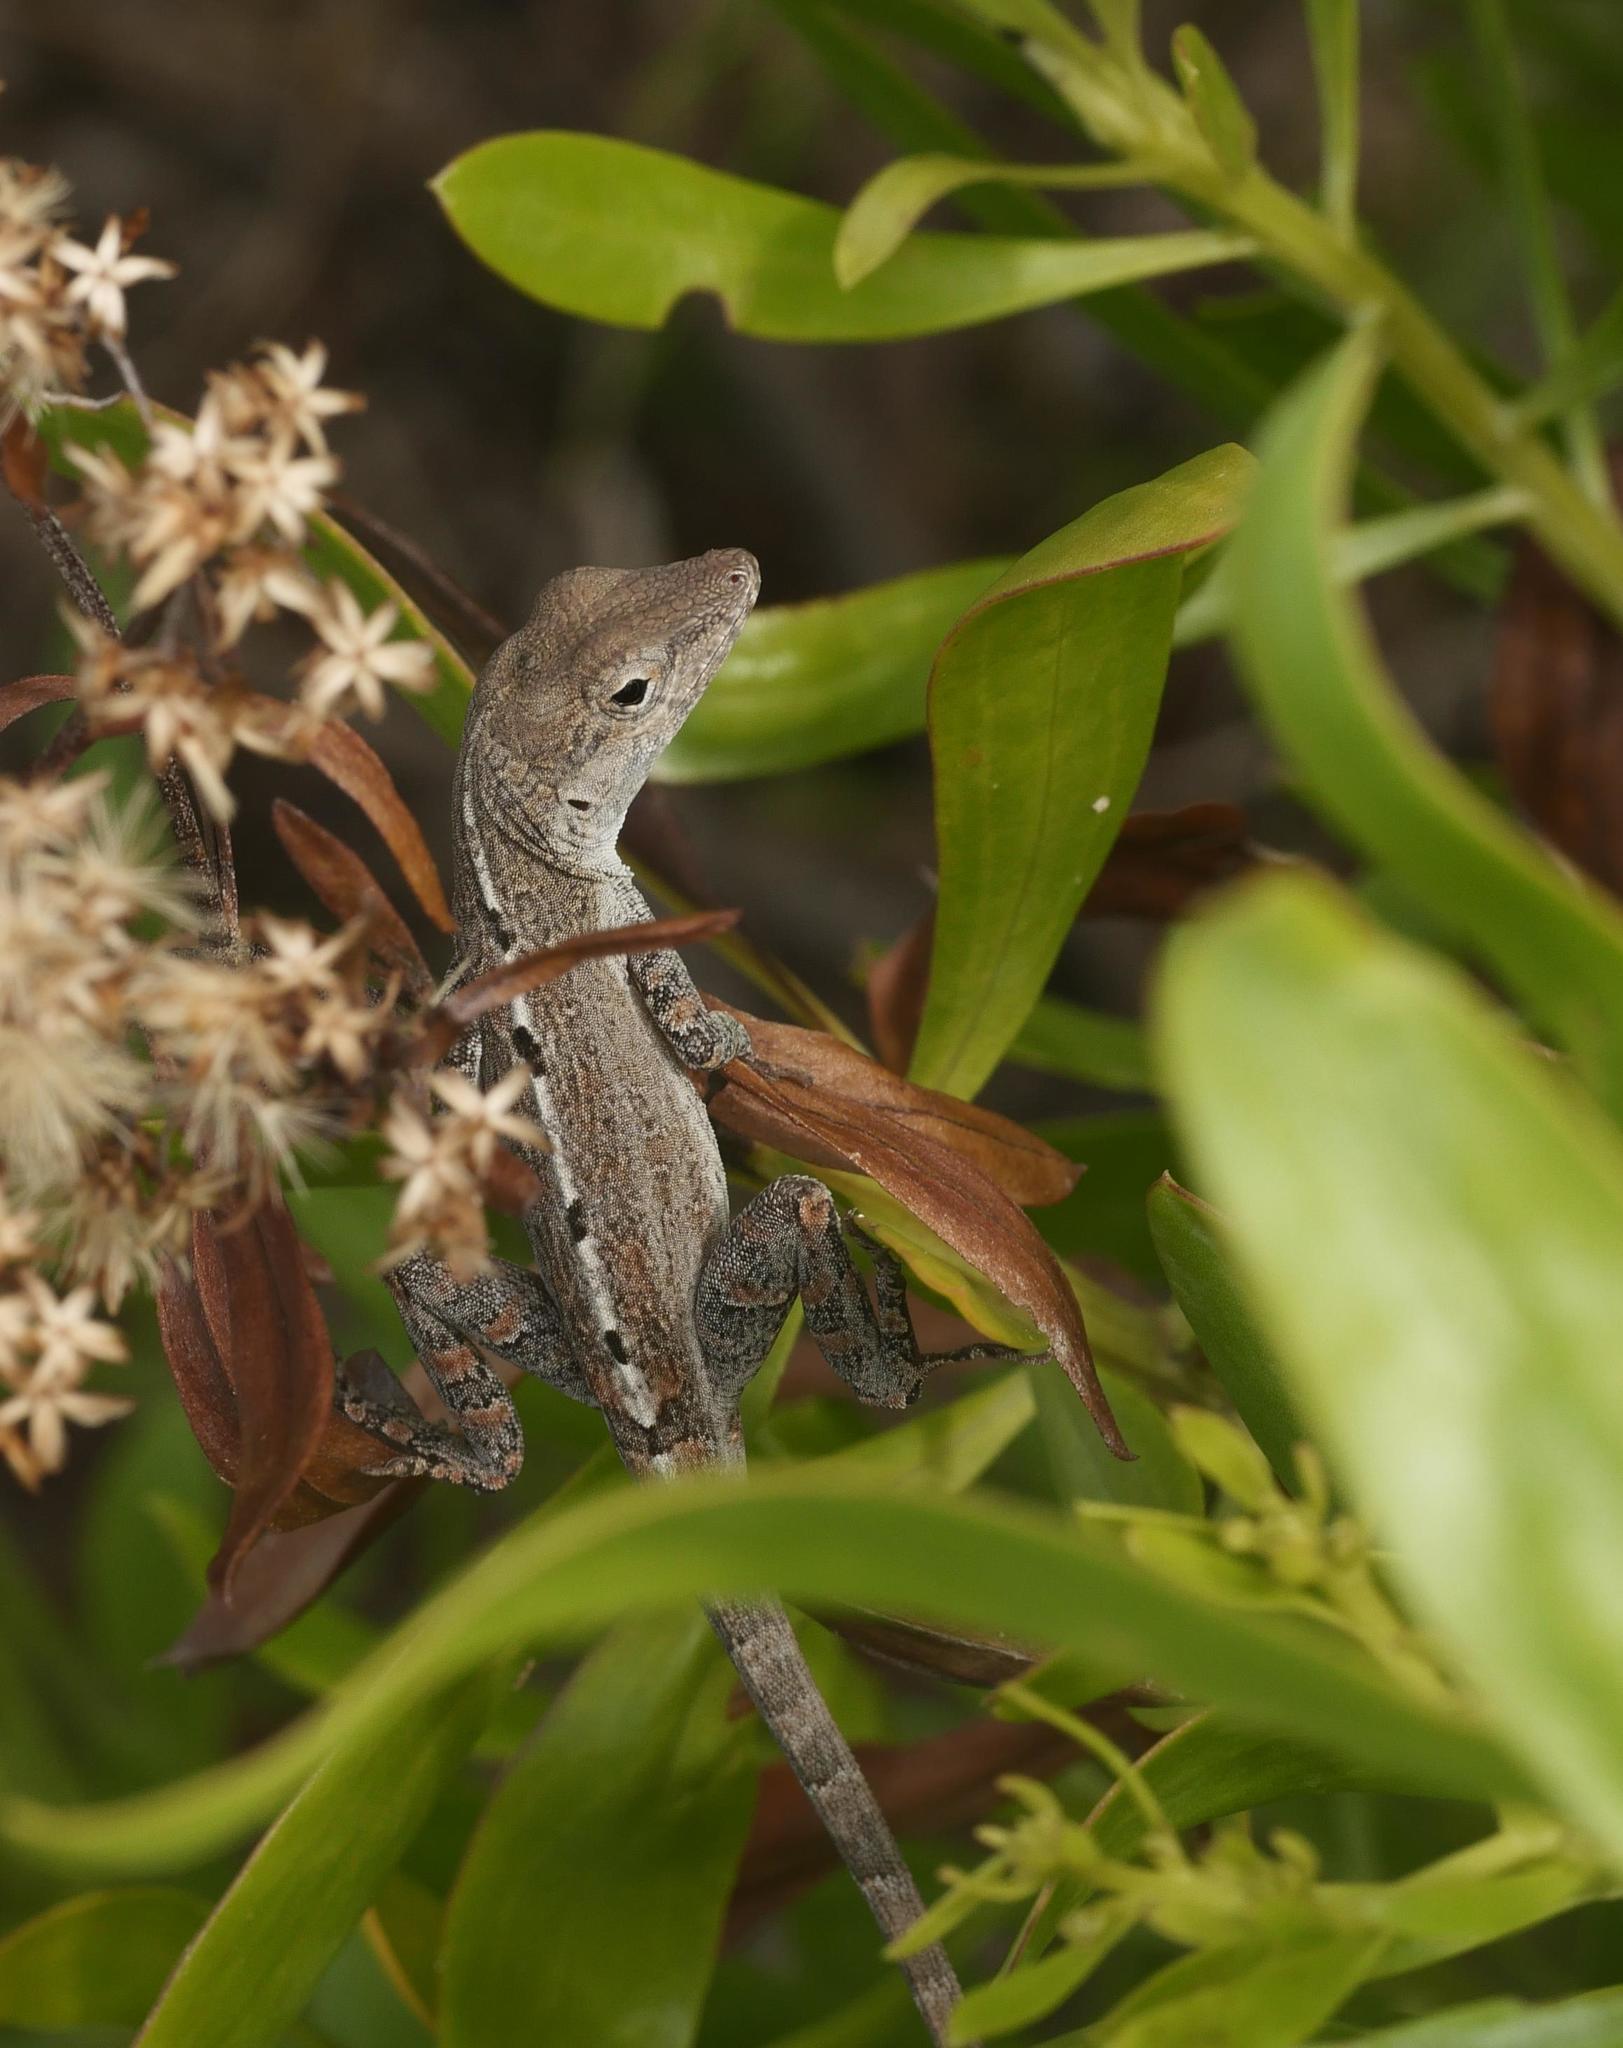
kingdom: Animalia
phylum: Chordata
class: Squamata
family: Dactyloidae
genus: Anolis
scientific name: Anolis scriptus
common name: Silver key anole
